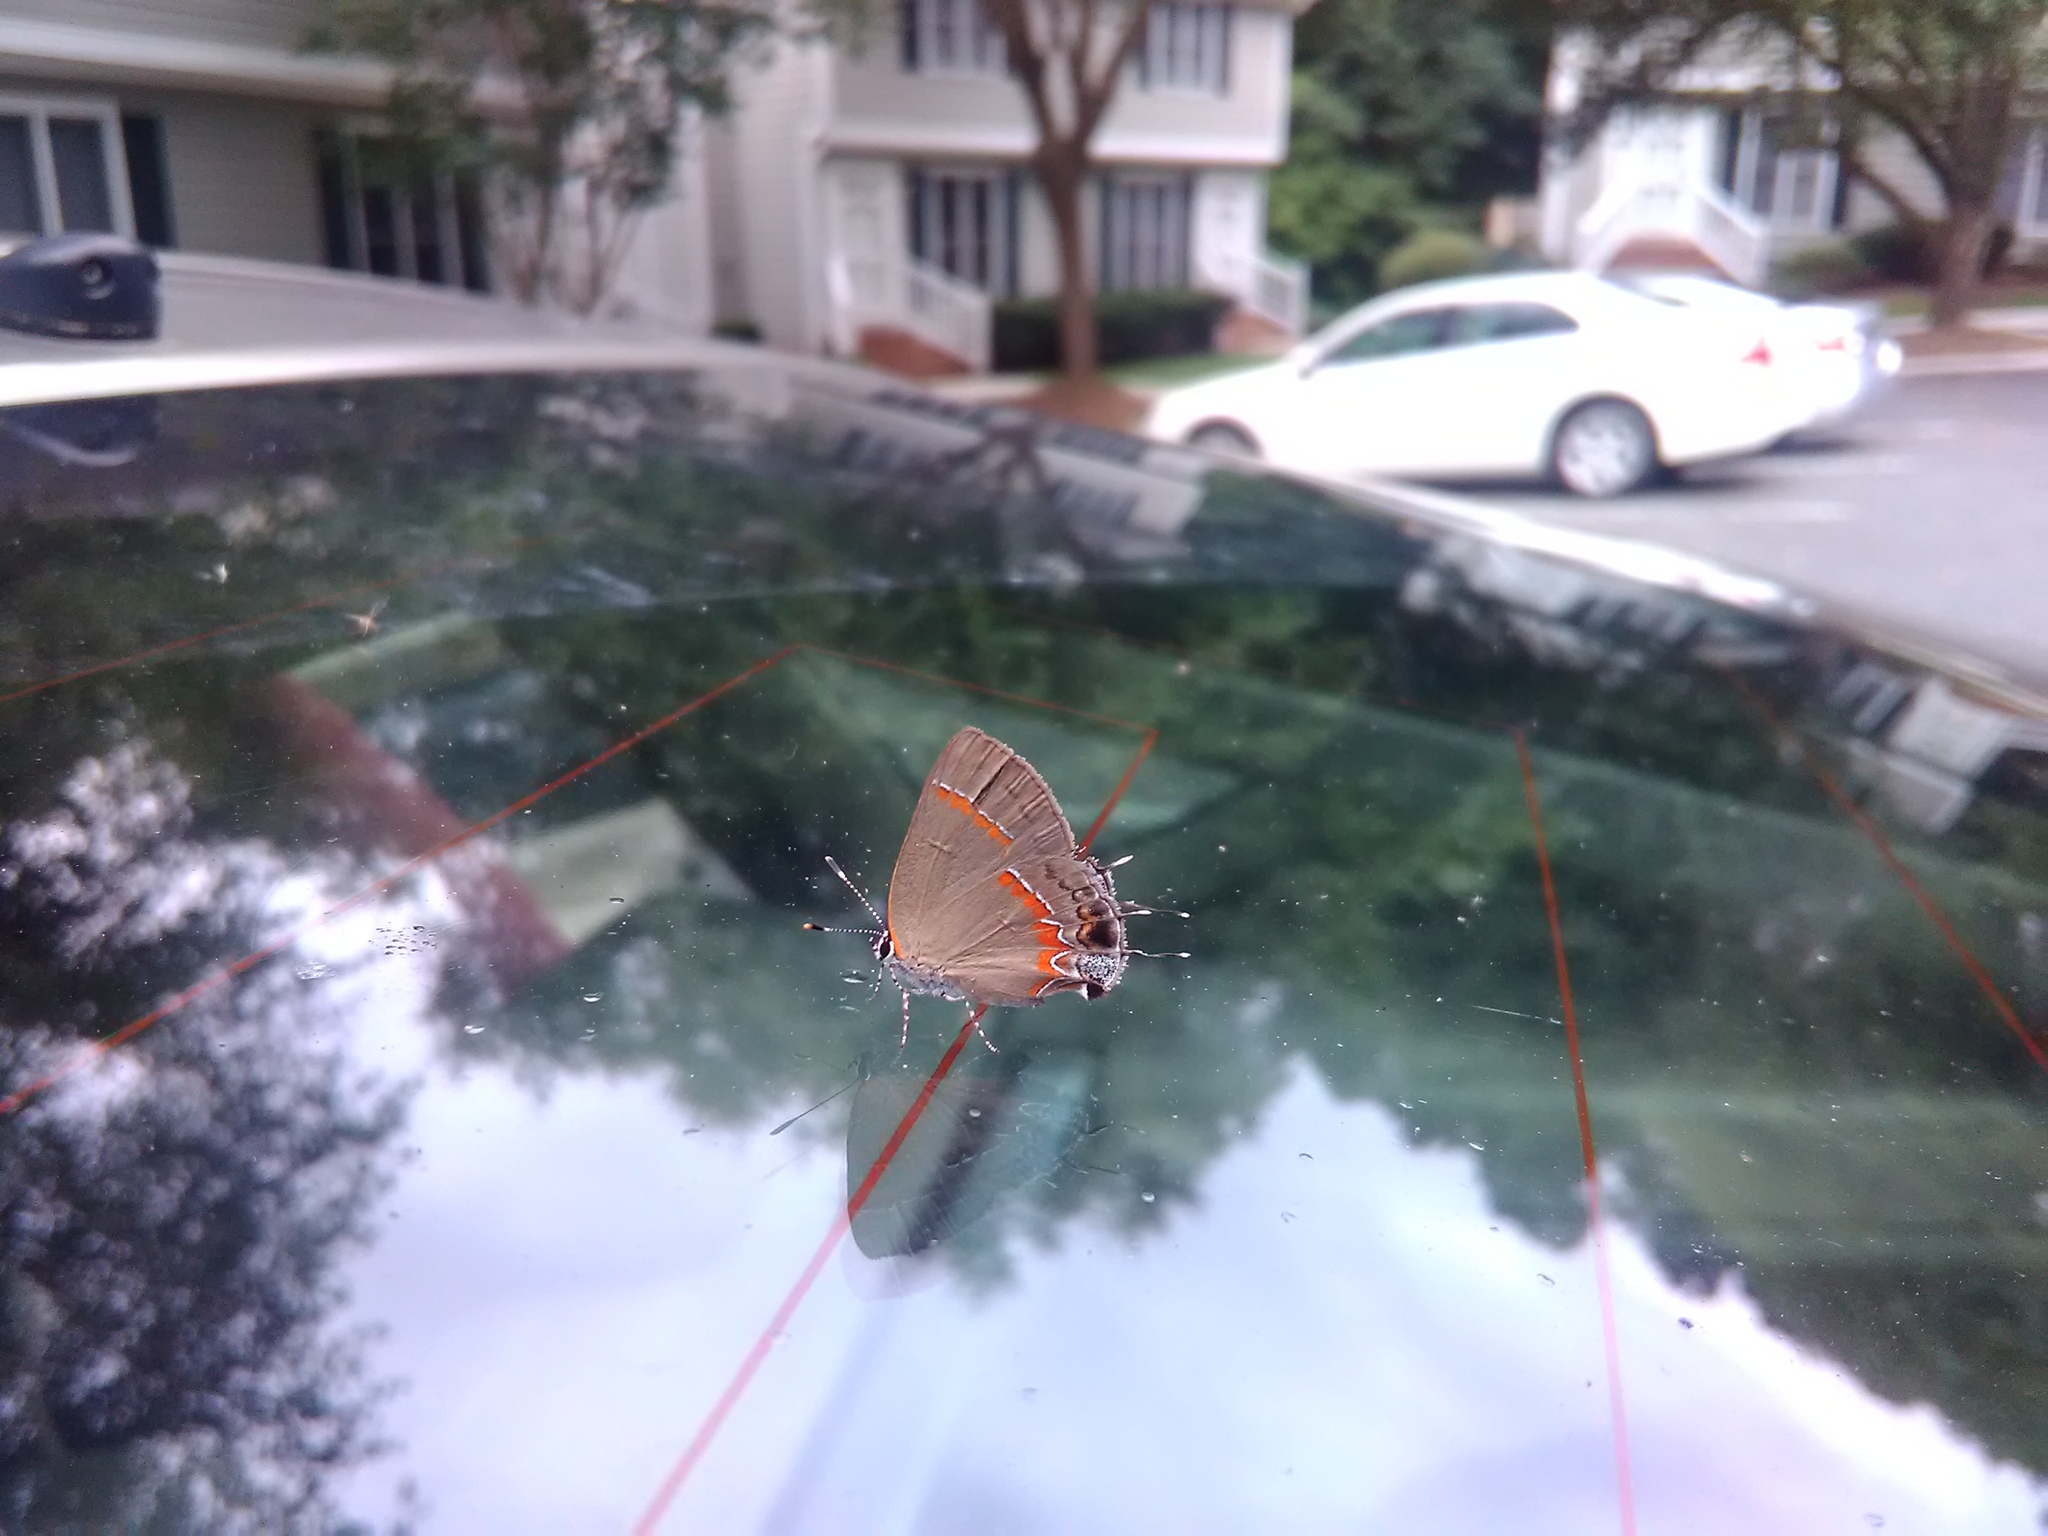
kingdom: Animalia
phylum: Arthropoda
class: Insecta
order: Lepidoptera
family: Lycaenidae
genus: Calycopis
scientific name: Calycopis cecrops
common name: Red-banded hairstreak
